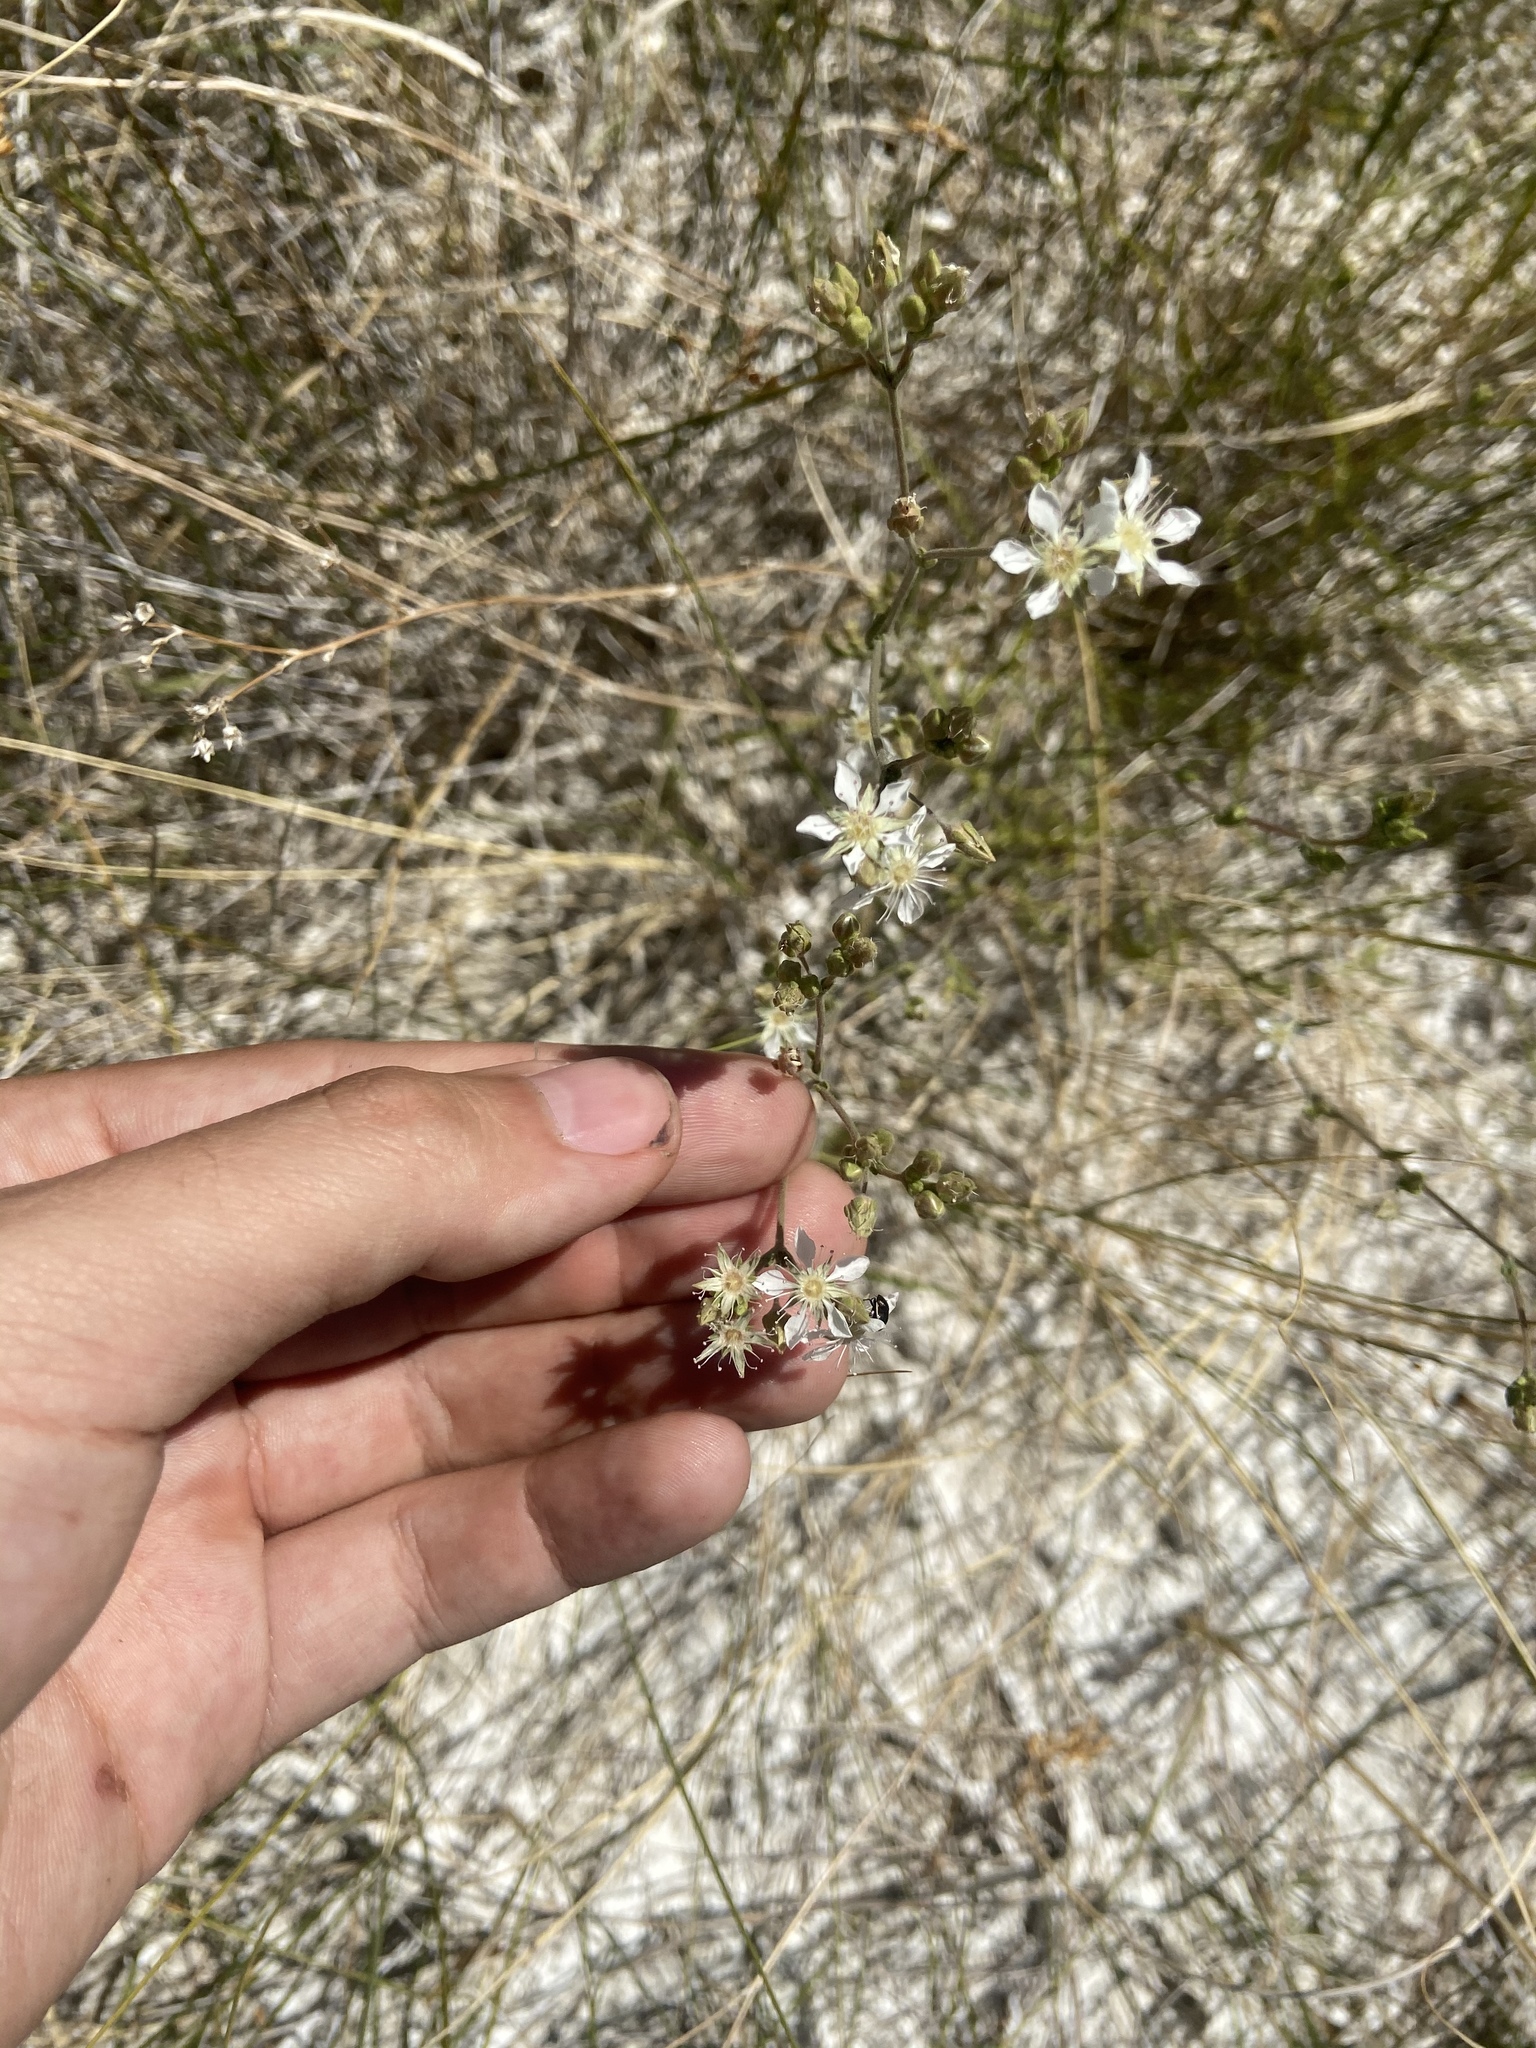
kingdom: Plantae
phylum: Tracheophyta
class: Magnoliopsida
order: Rosales
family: Rosaceae
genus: Potentilla
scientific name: Potentilla kingii
